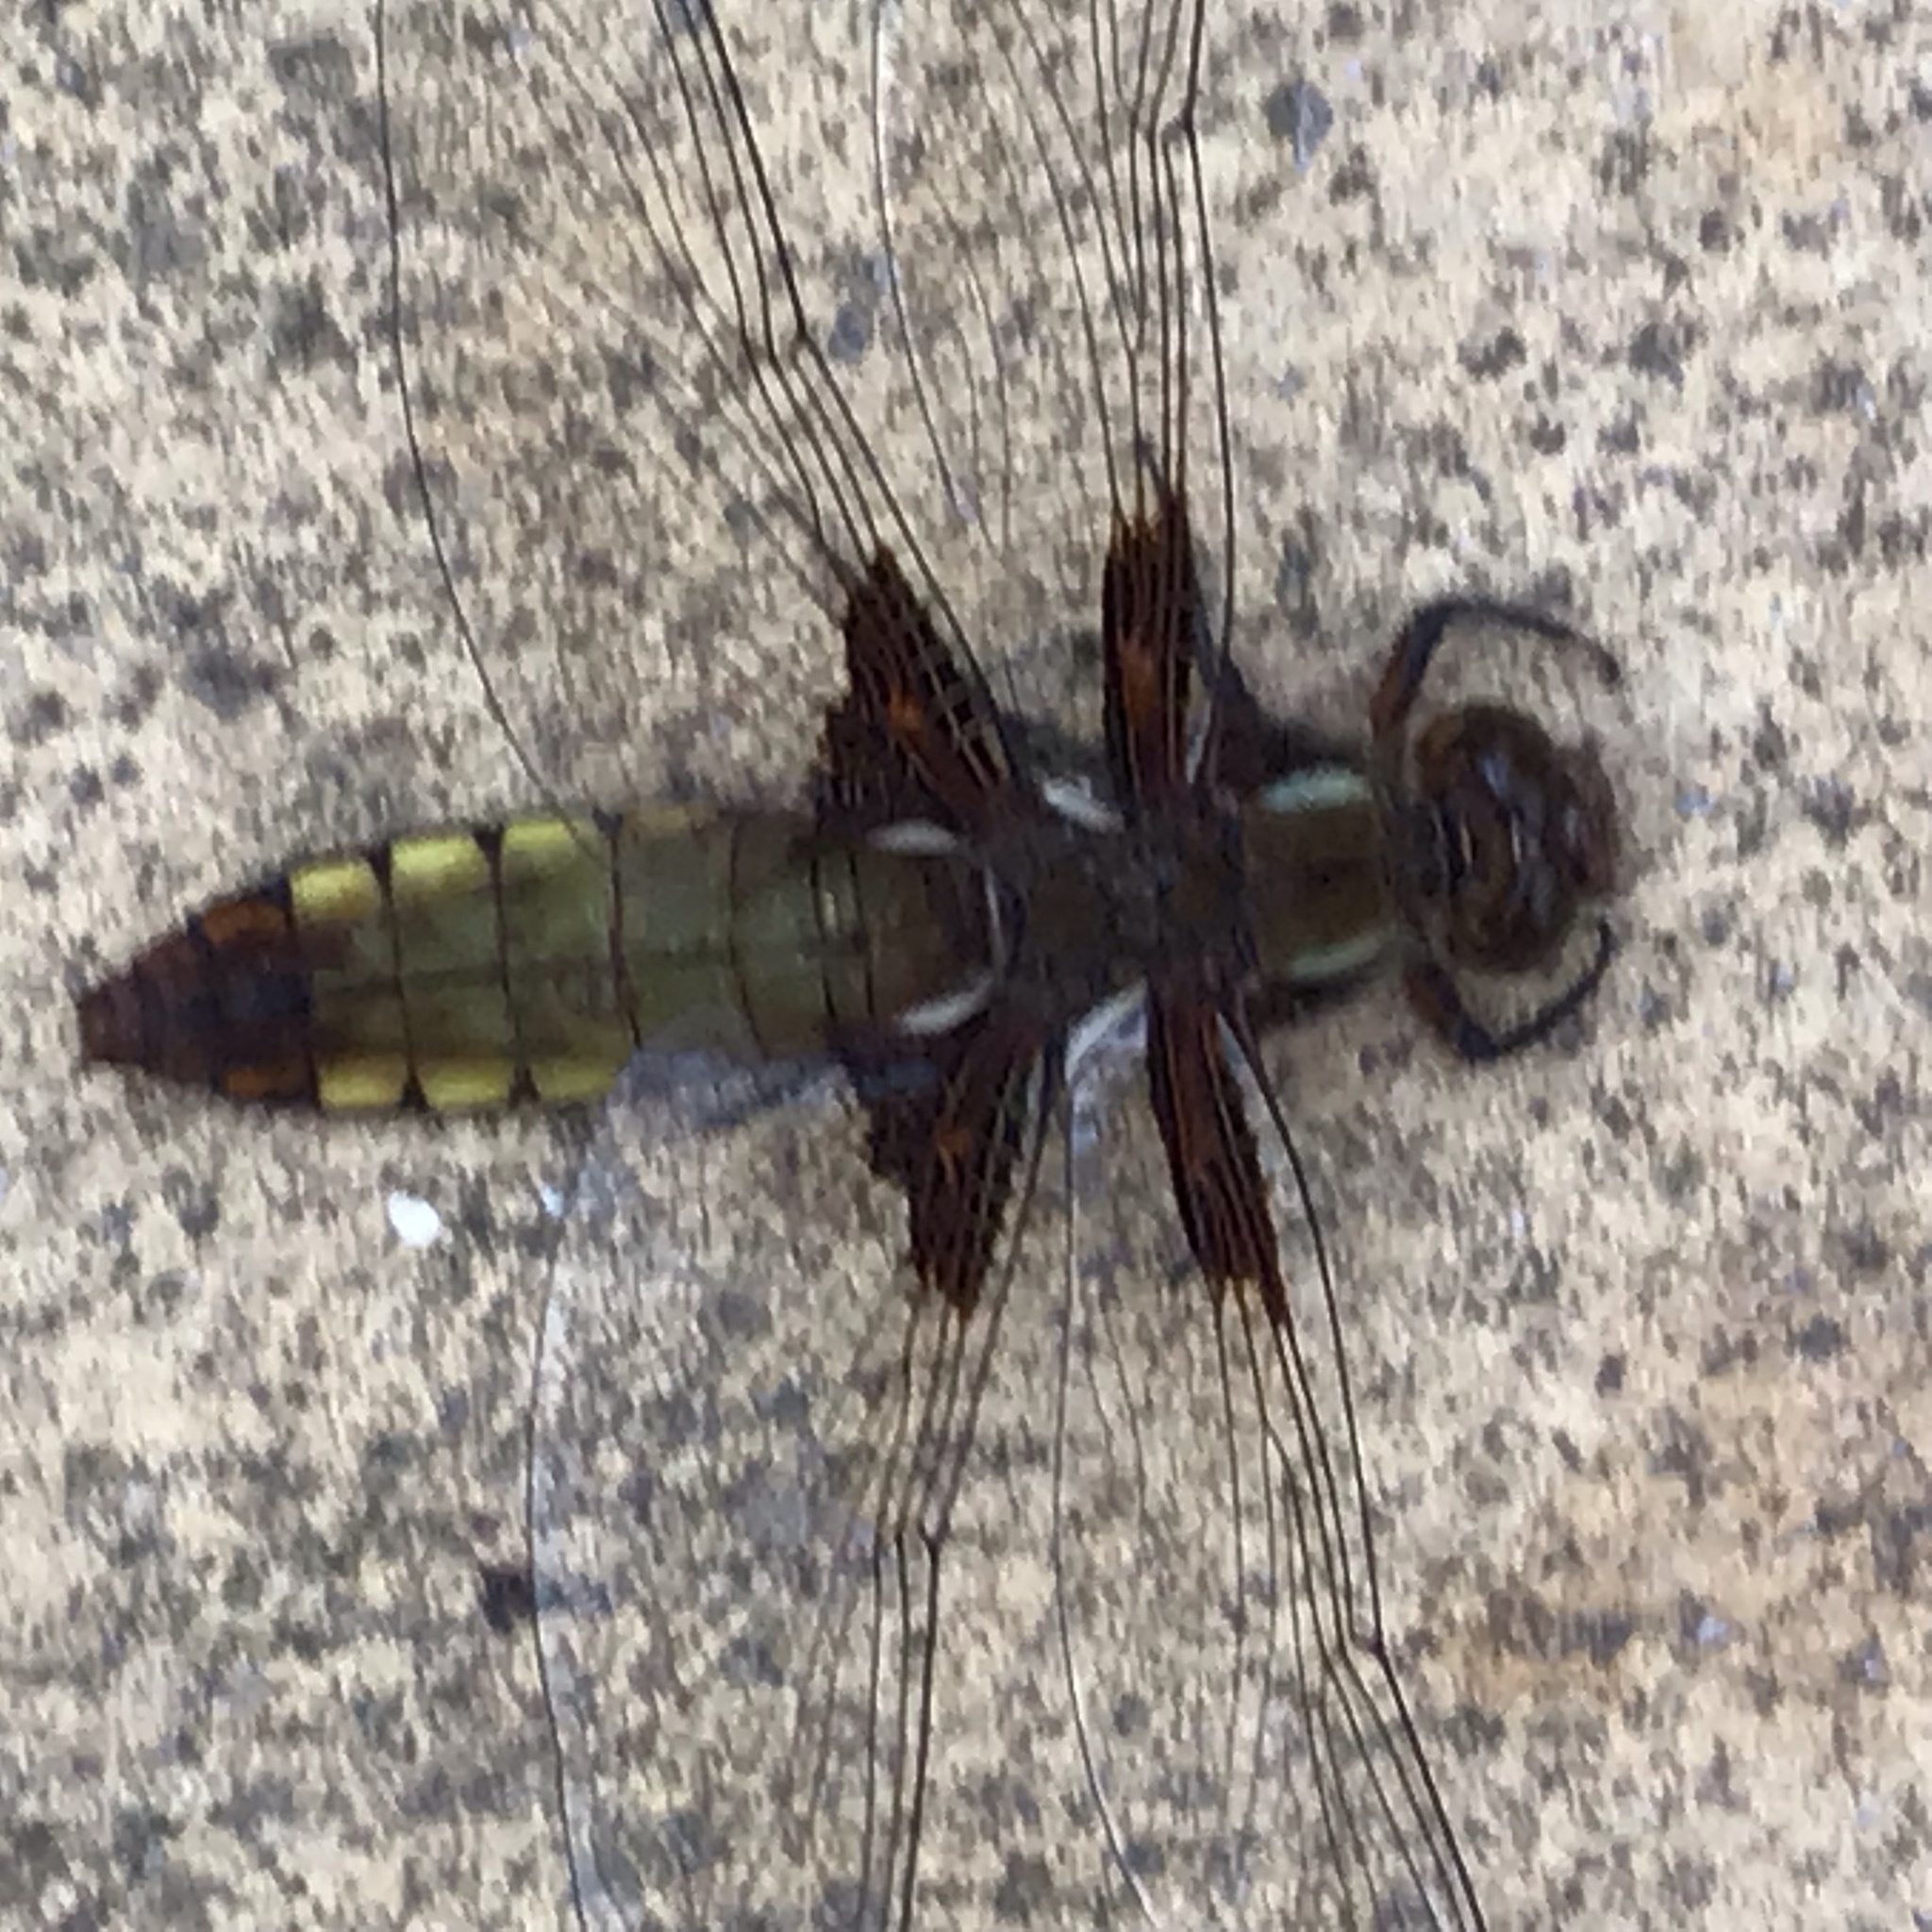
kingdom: Animalia
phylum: Arthropoda
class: Insecta
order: Odonata
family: Libellulidae
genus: Libellula
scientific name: Libellula depressa
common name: Broad-bodied chaser
